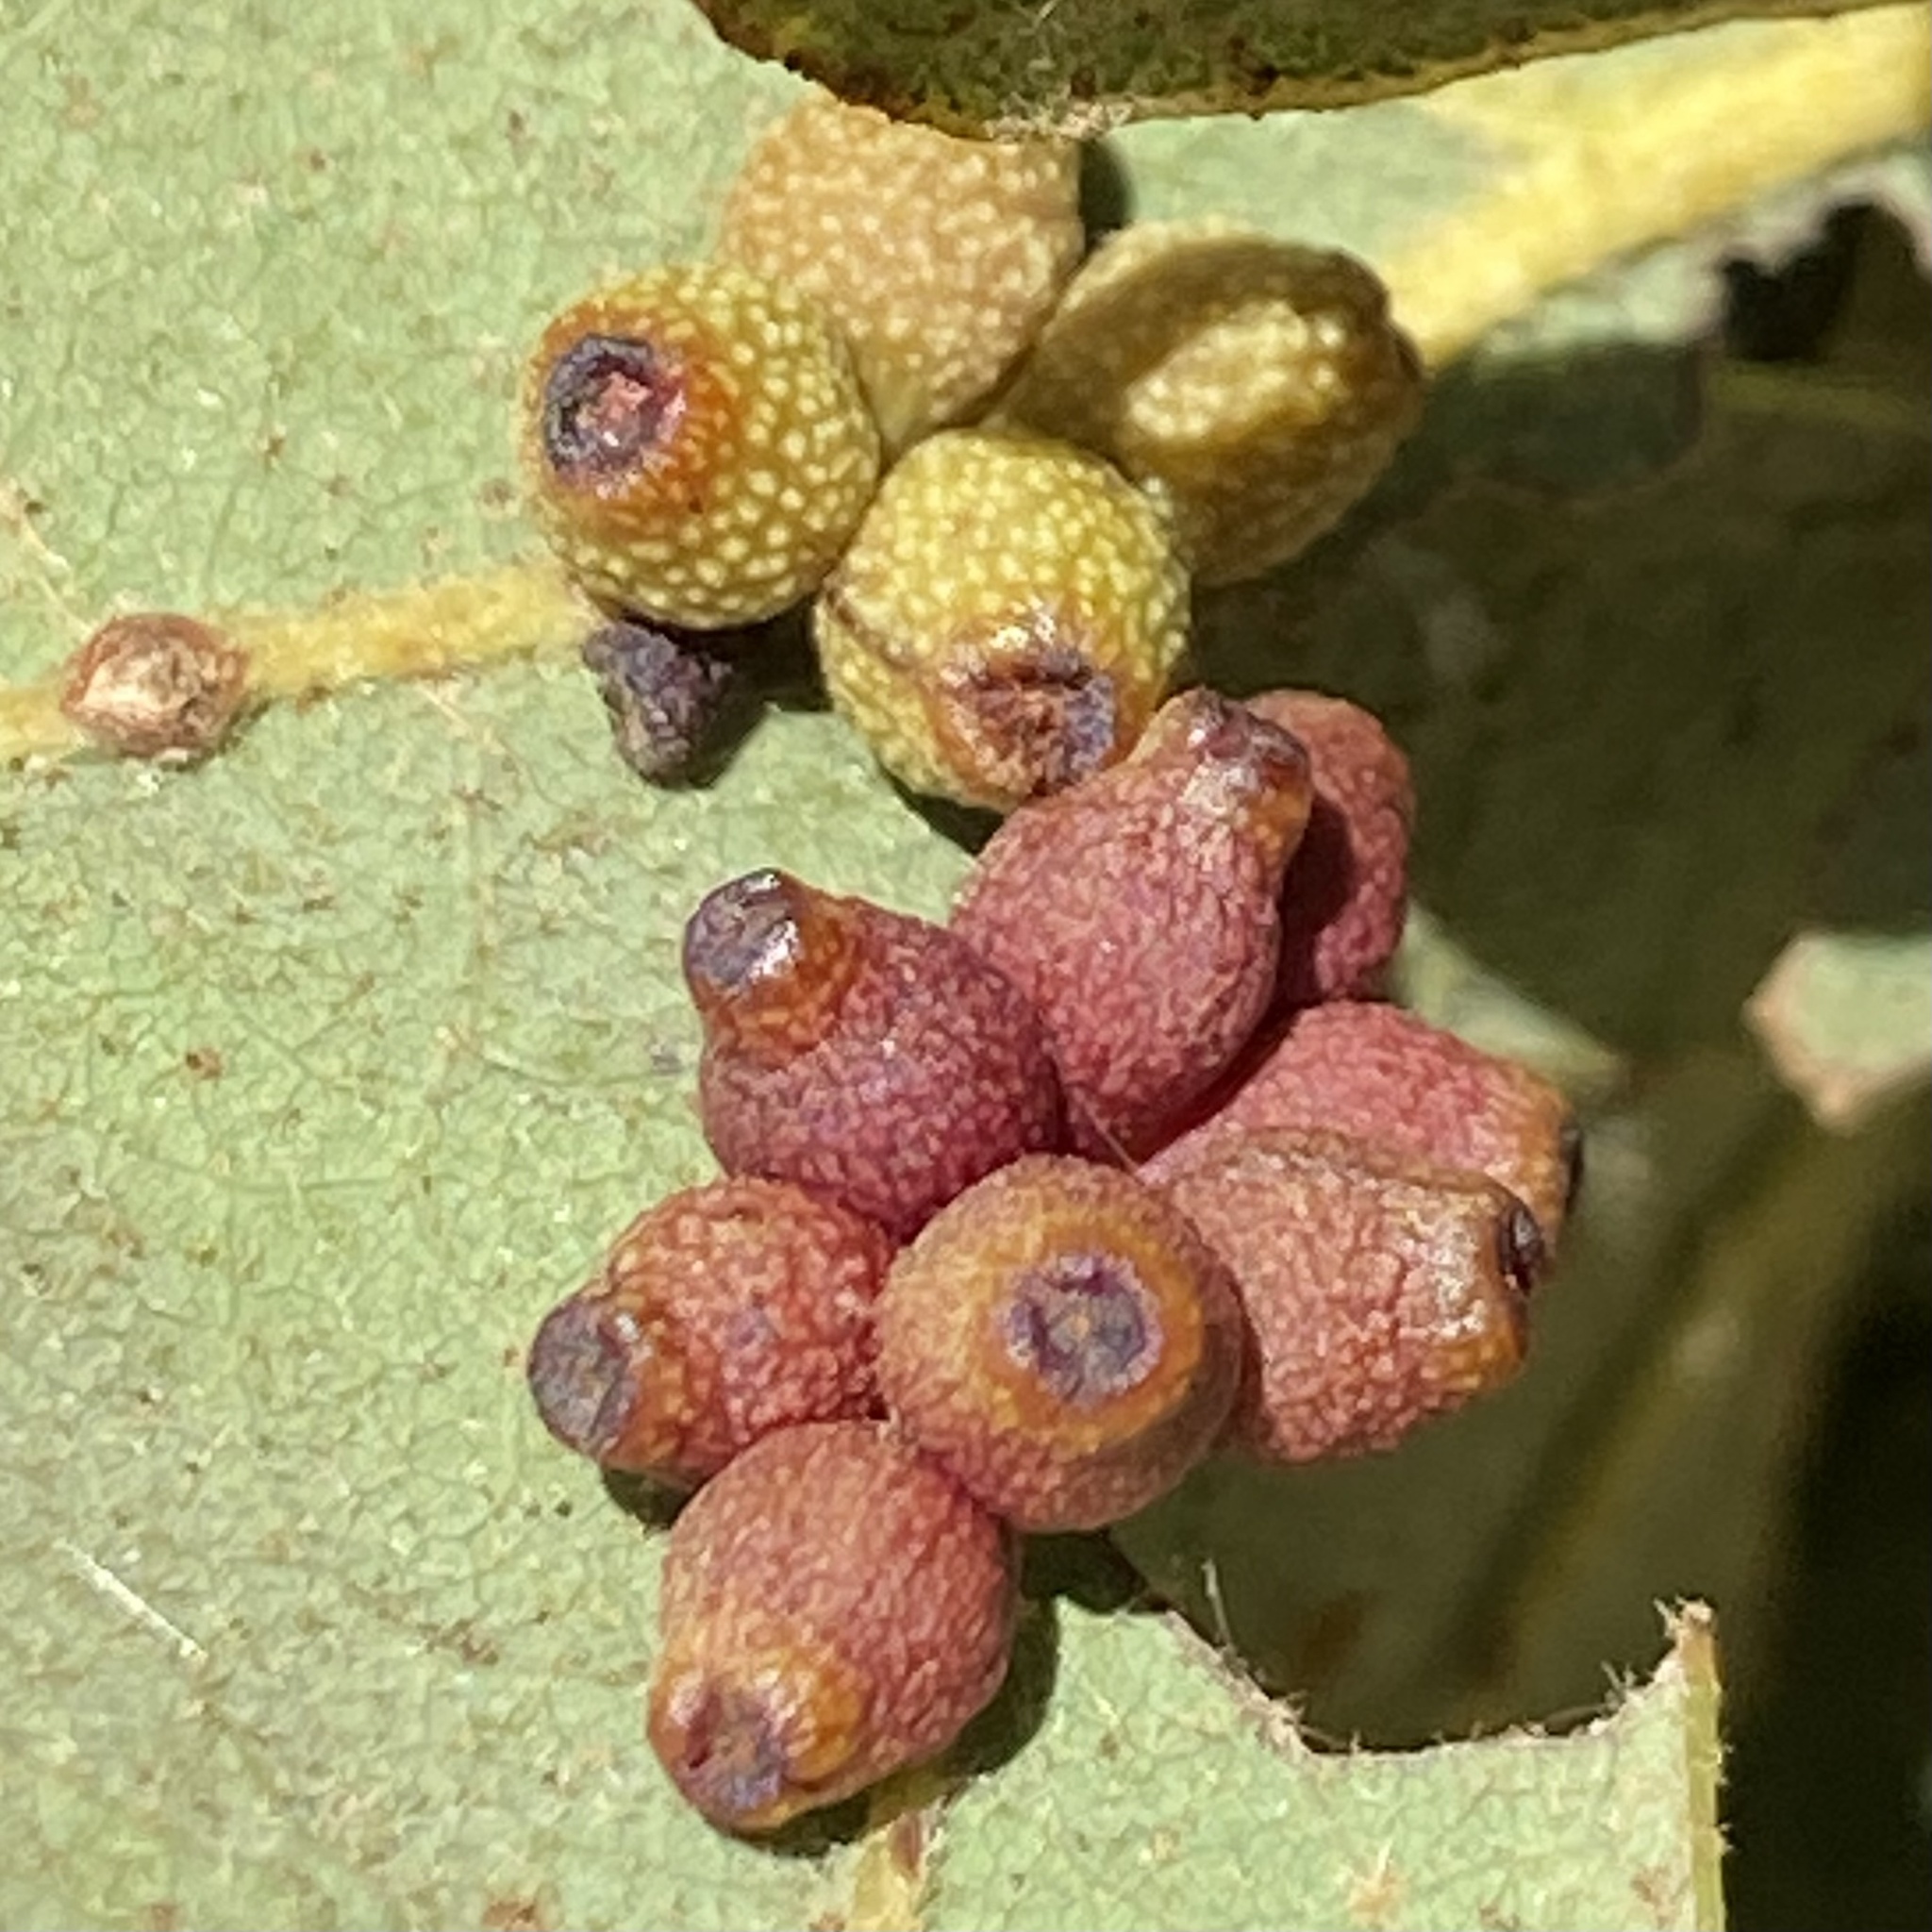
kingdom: Animalia
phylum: Arthropoda
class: Insecta
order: Hymenoptera
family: Cynipidae
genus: Andricus
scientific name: Andricus lustrans
